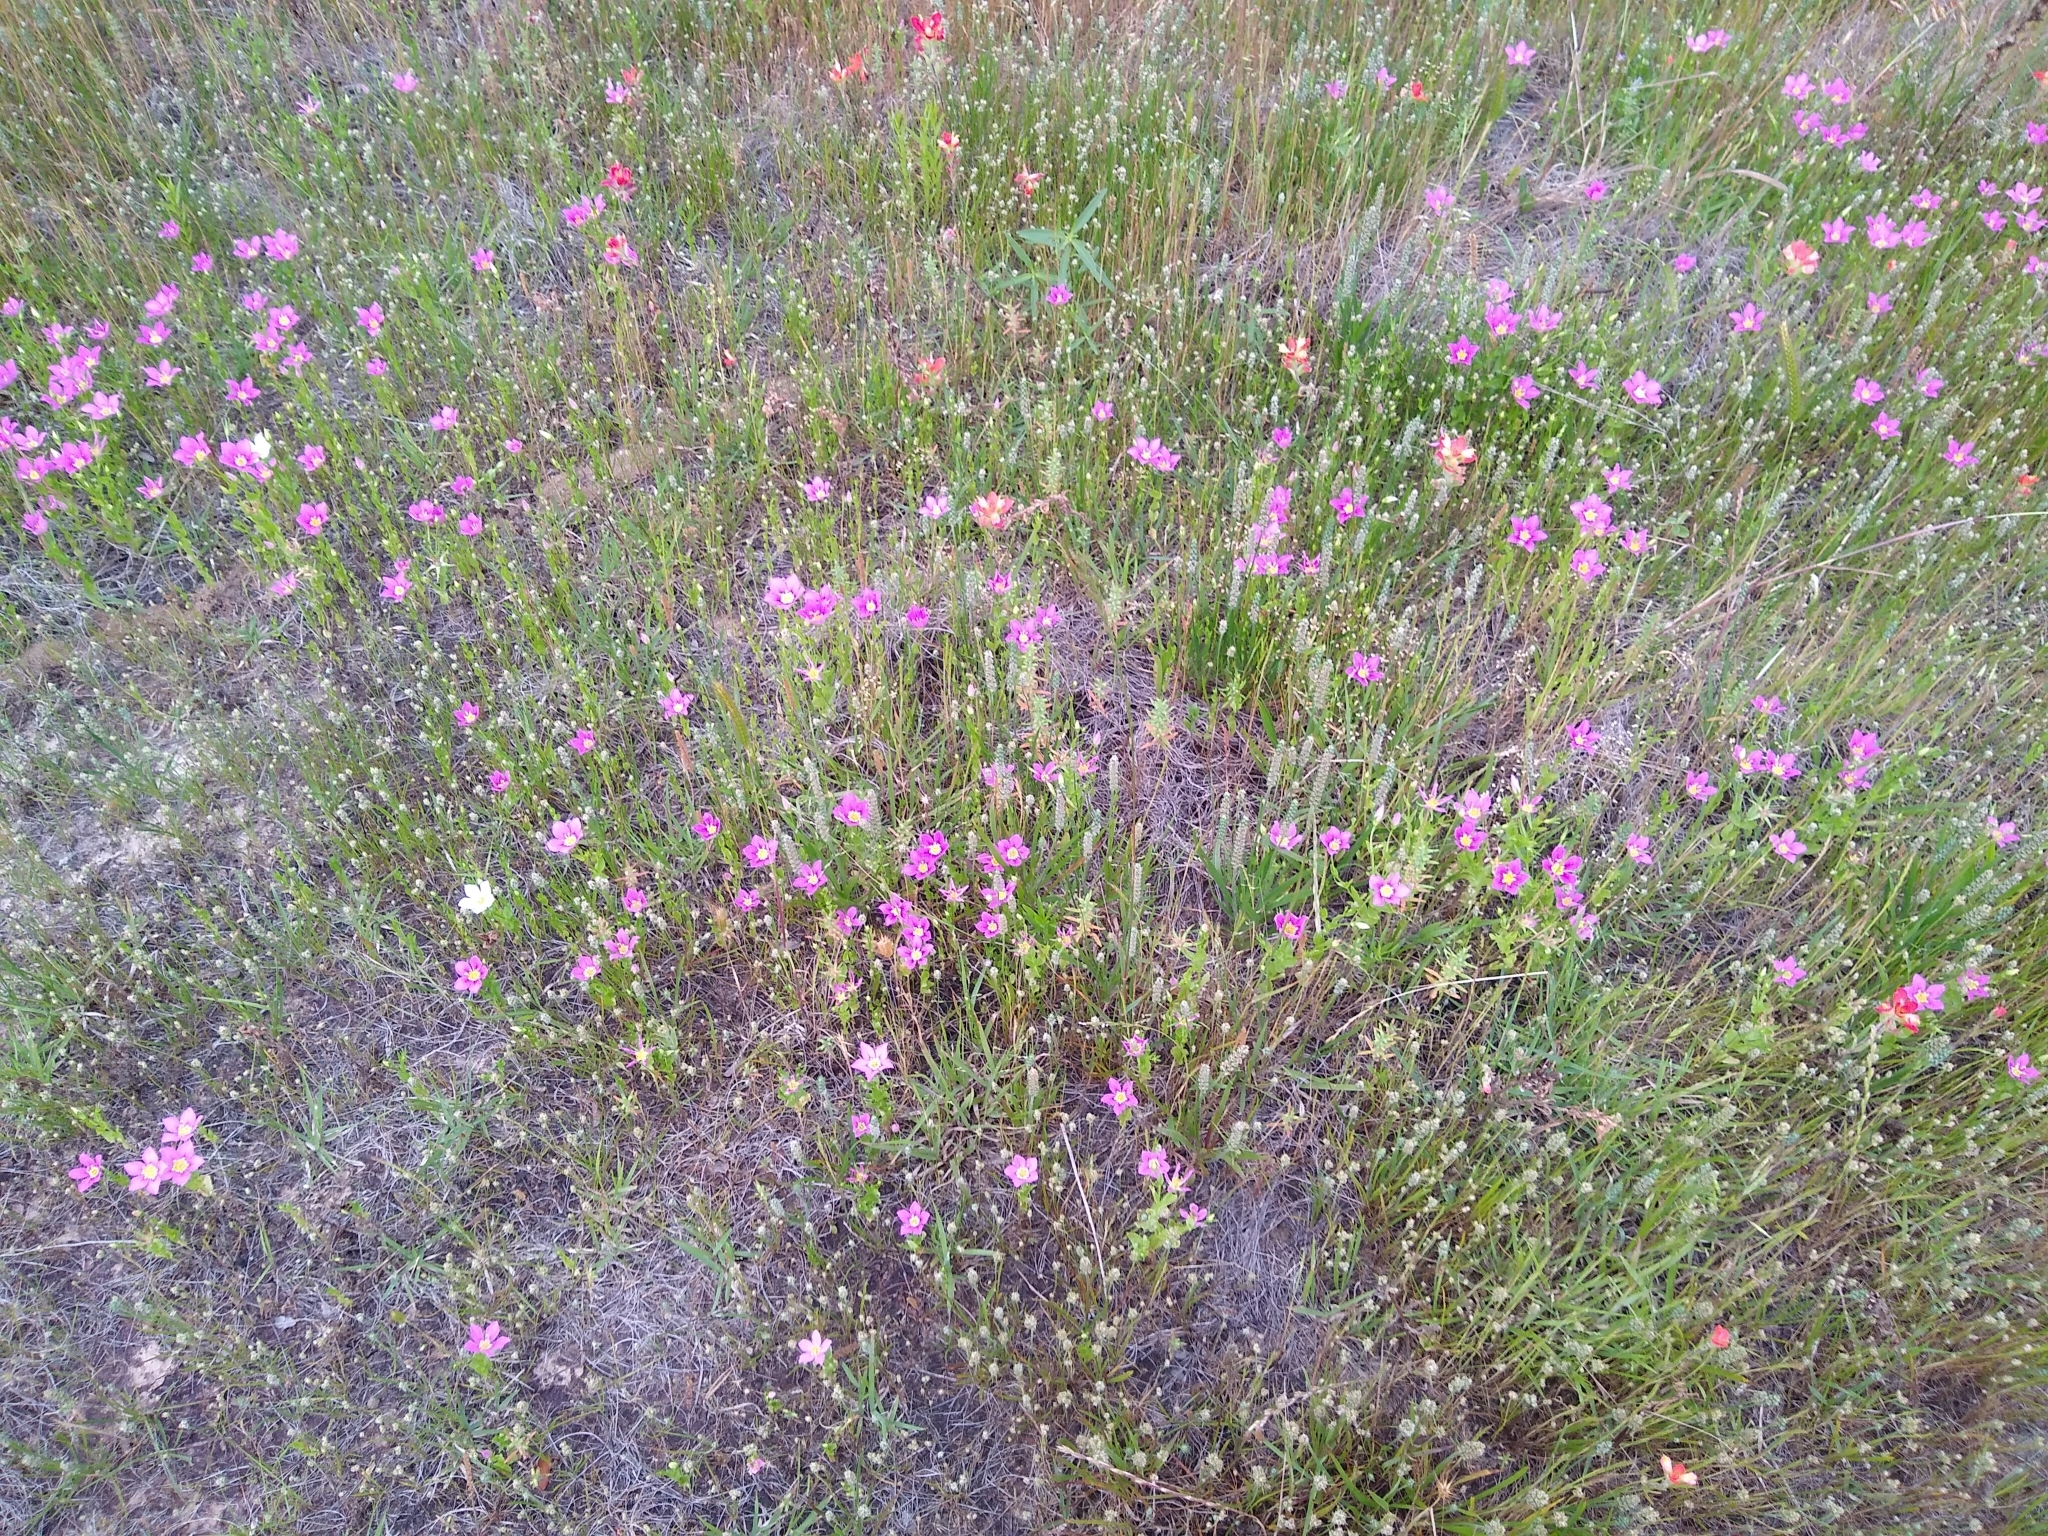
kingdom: Plantae
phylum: Tracheophyta
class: Magnoliopsida
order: Gentianales
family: Gentianaceae
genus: Sabatia
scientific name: Sabatia campestris
